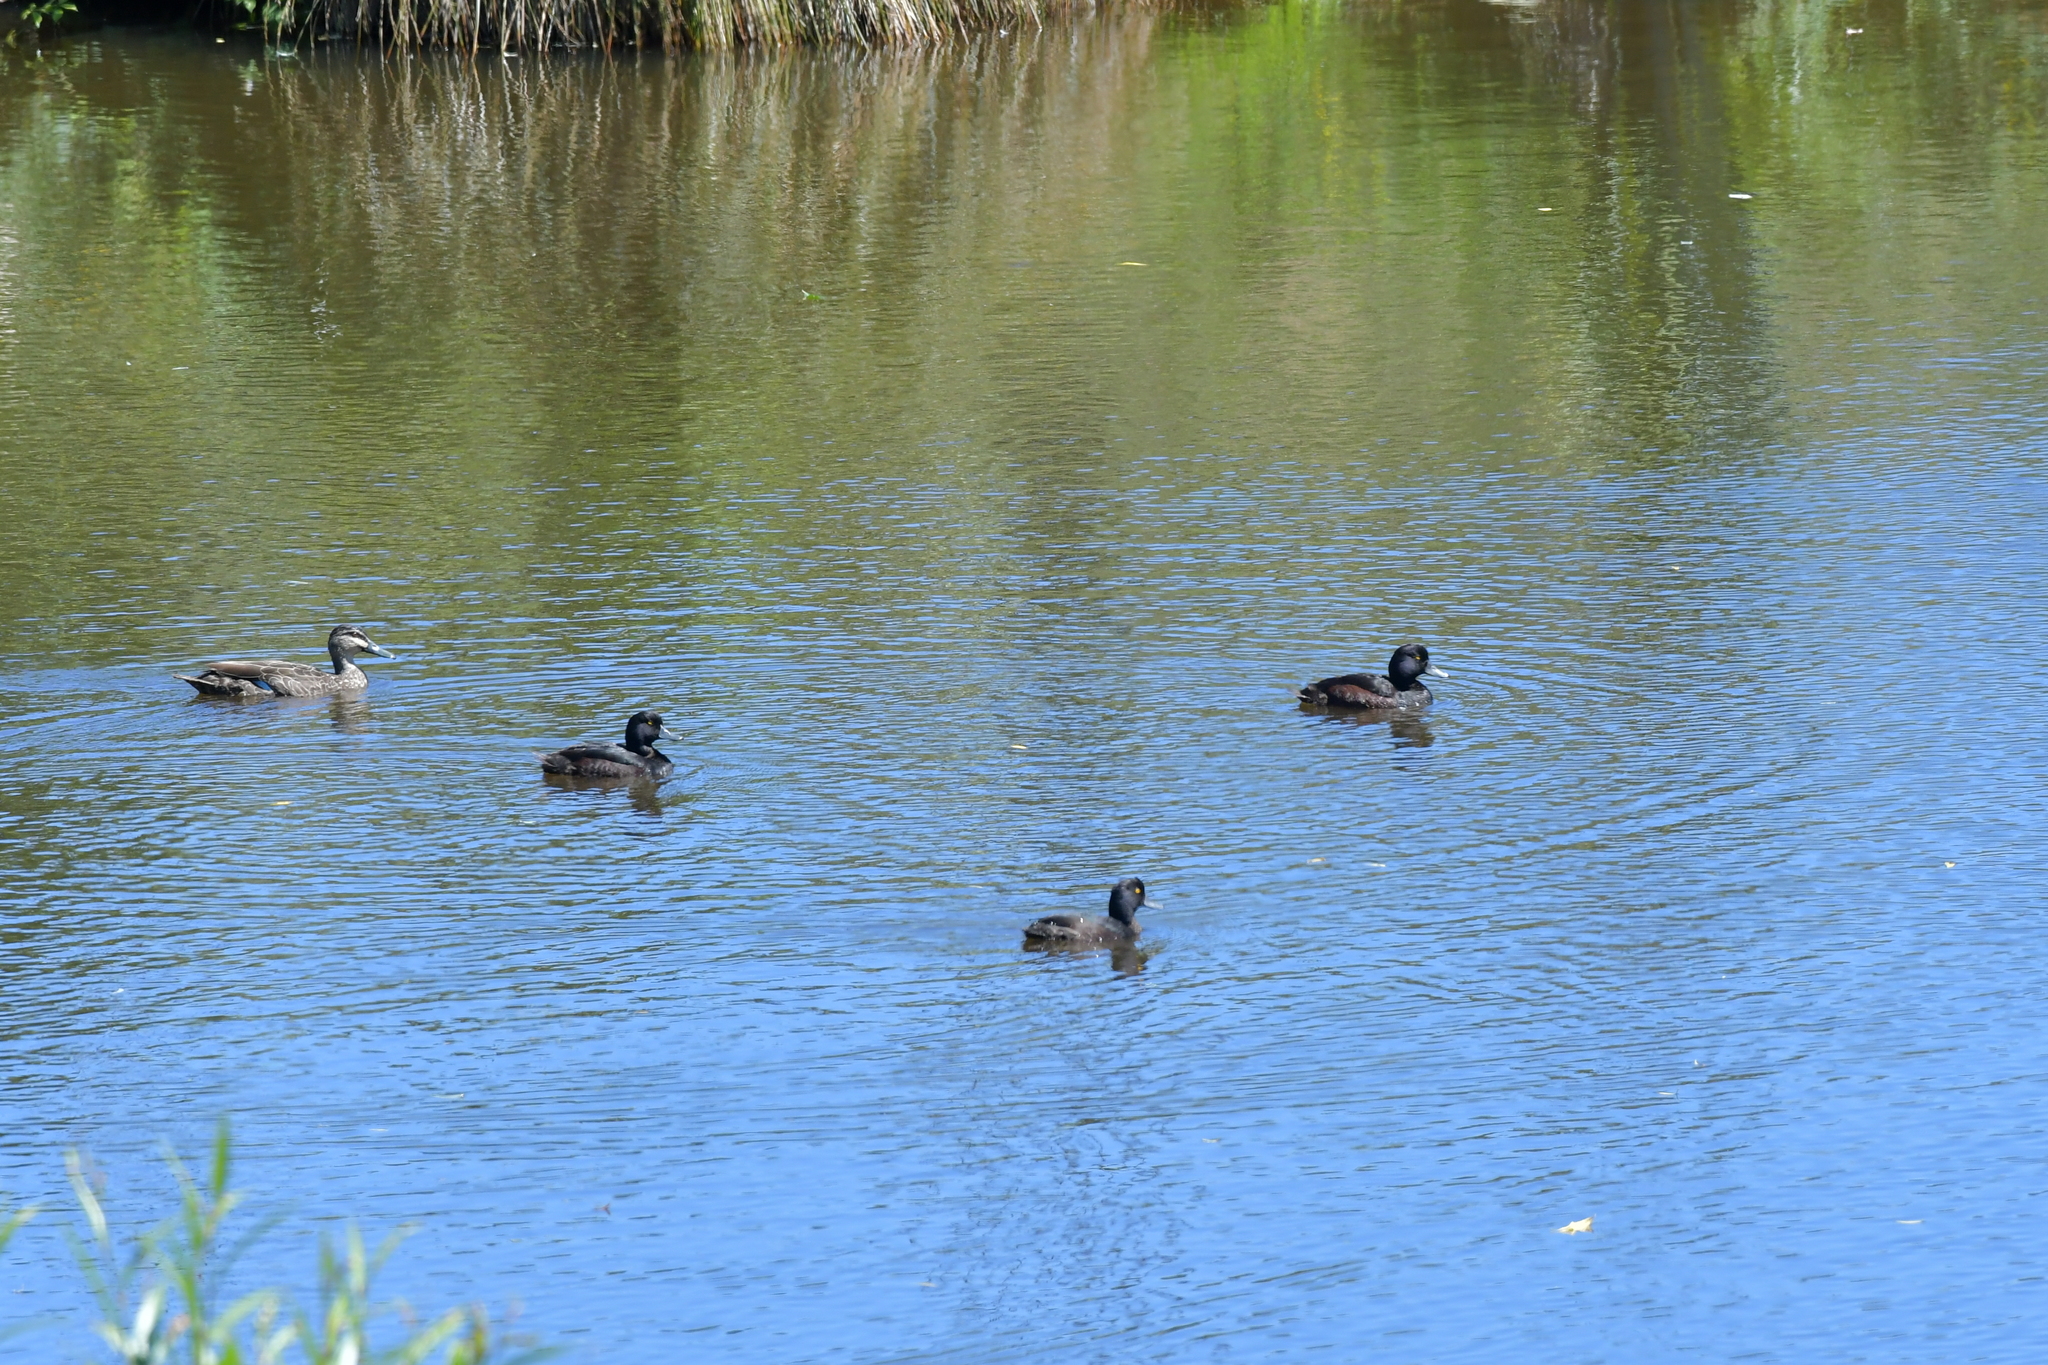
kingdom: Animalia
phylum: Chordata
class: Aves
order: Anseriformes
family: Anatidae
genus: Aythya
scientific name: Aythya novaeseelandiae
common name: New zealand scaup
